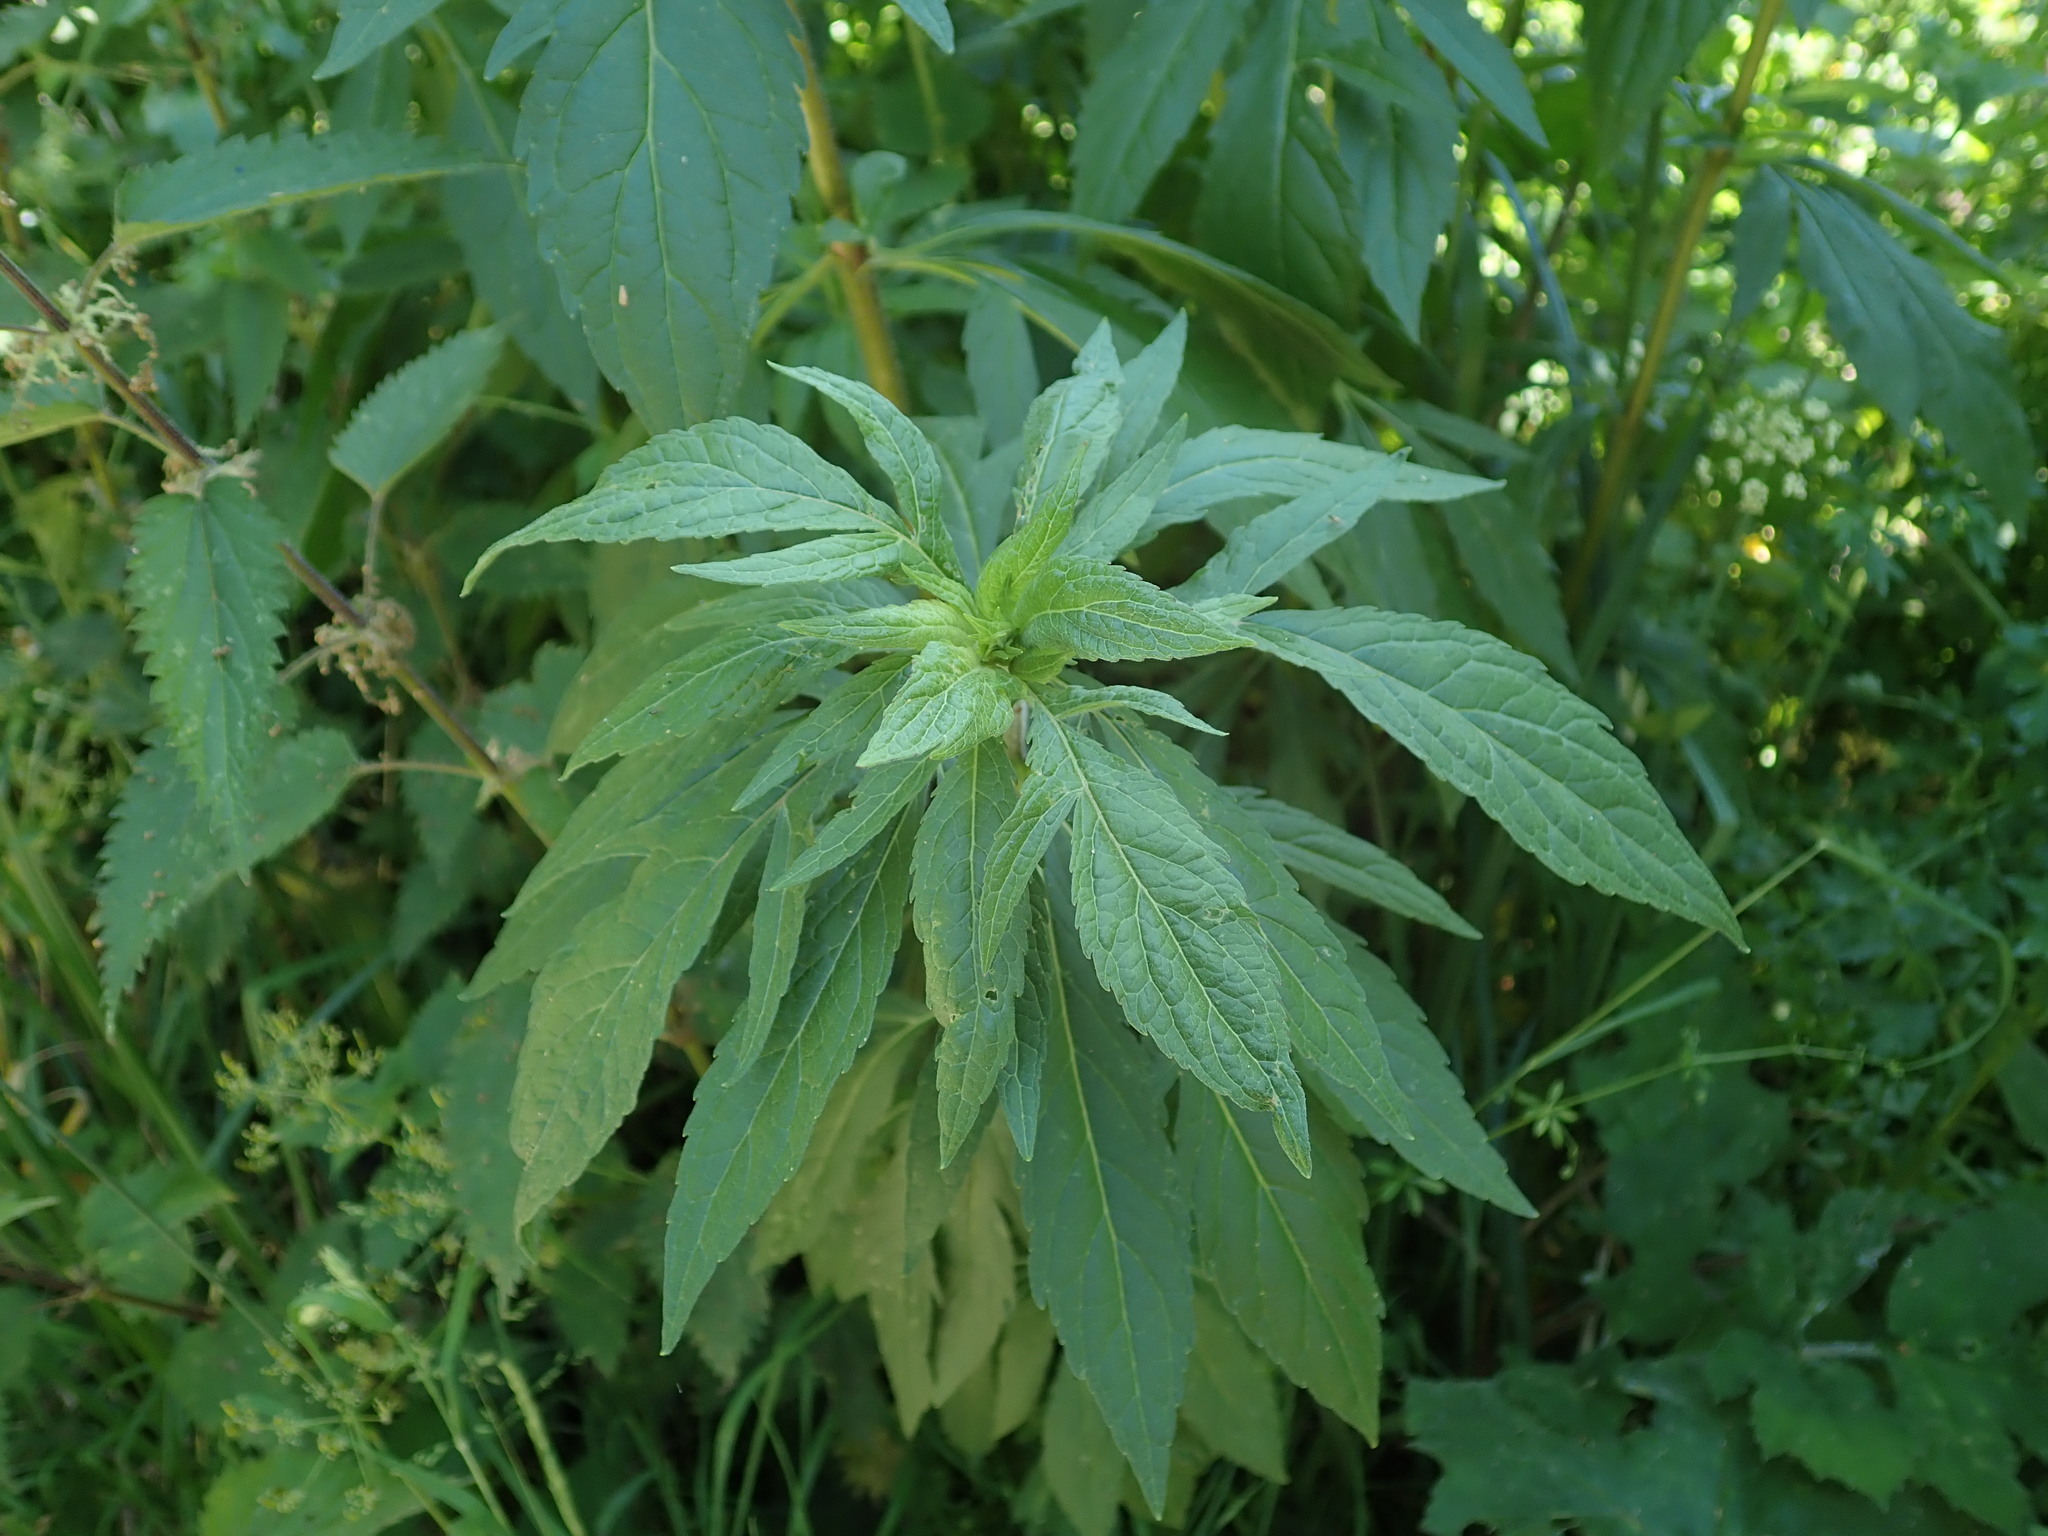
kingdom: Plantae
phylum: Tracheophyta
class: Magnoliopsida
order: Asterales
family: Asteraceae
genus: Eupatorium
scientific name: Eupatorium cannabinum
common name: Hemp-agrimony
